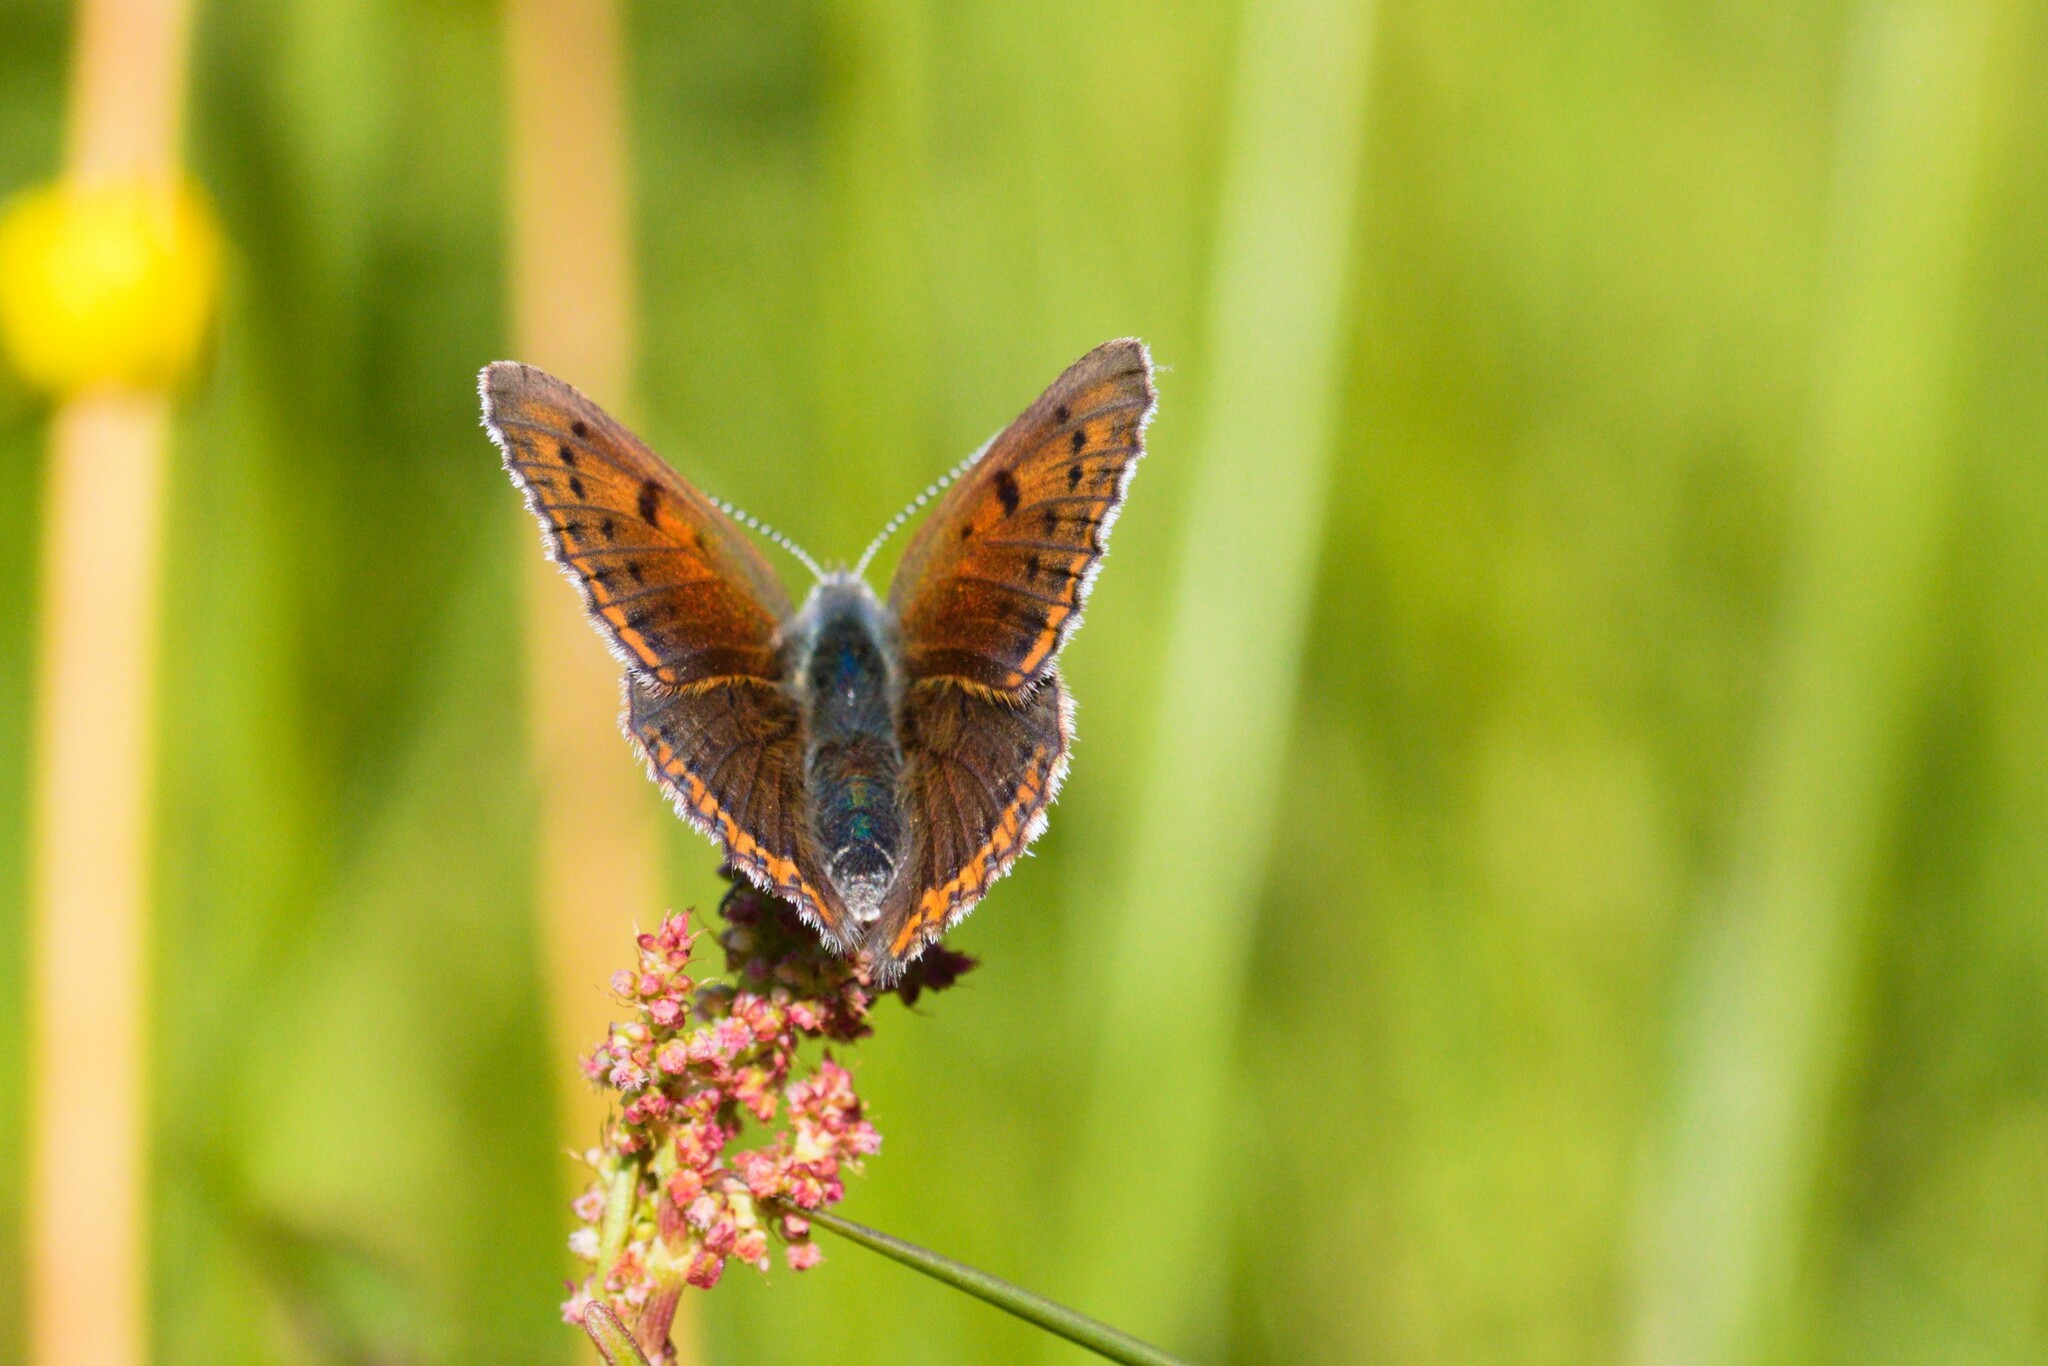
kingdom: Animalia
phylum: Arthropoda
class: Insecta
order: Lepidoptera
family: Lycaenidae
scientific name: Lycaenidae
